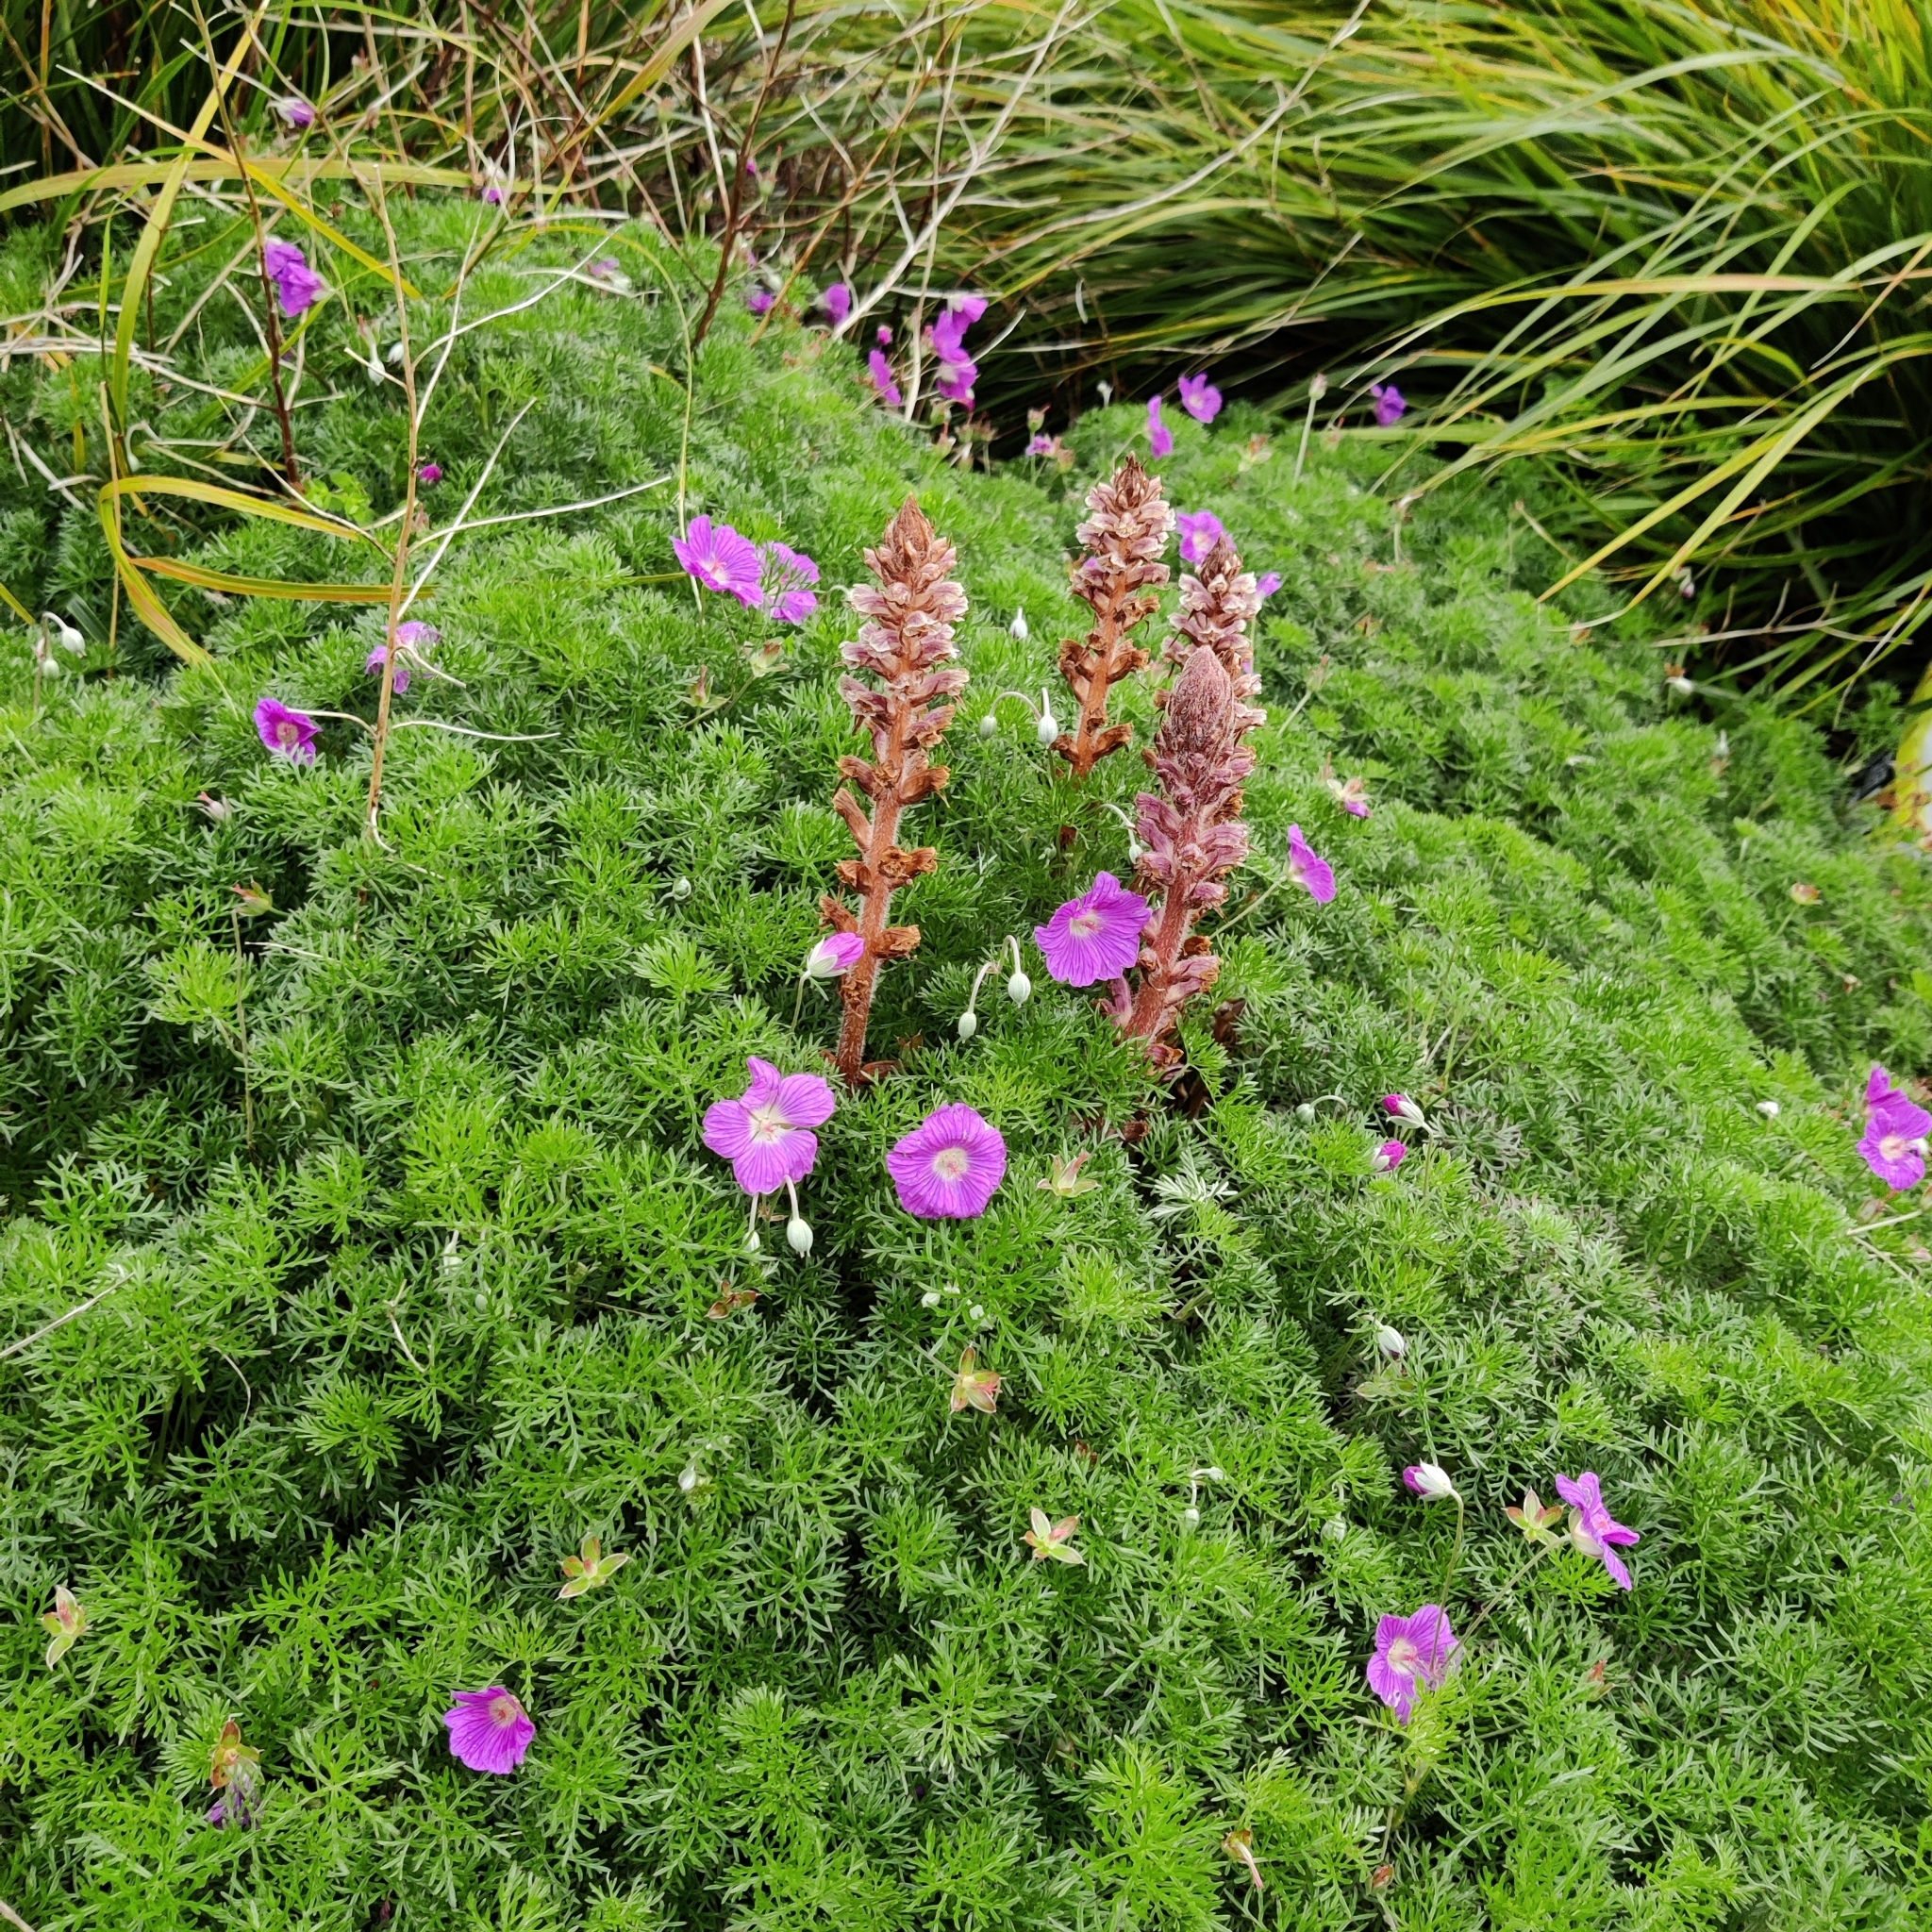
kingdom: Plantae
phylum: Tracheophyta
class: Magnoliopsida
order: Lamiales
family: Orobanchaceae
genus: Orobanche
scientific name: Orobanche minor
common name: Common broomrape
